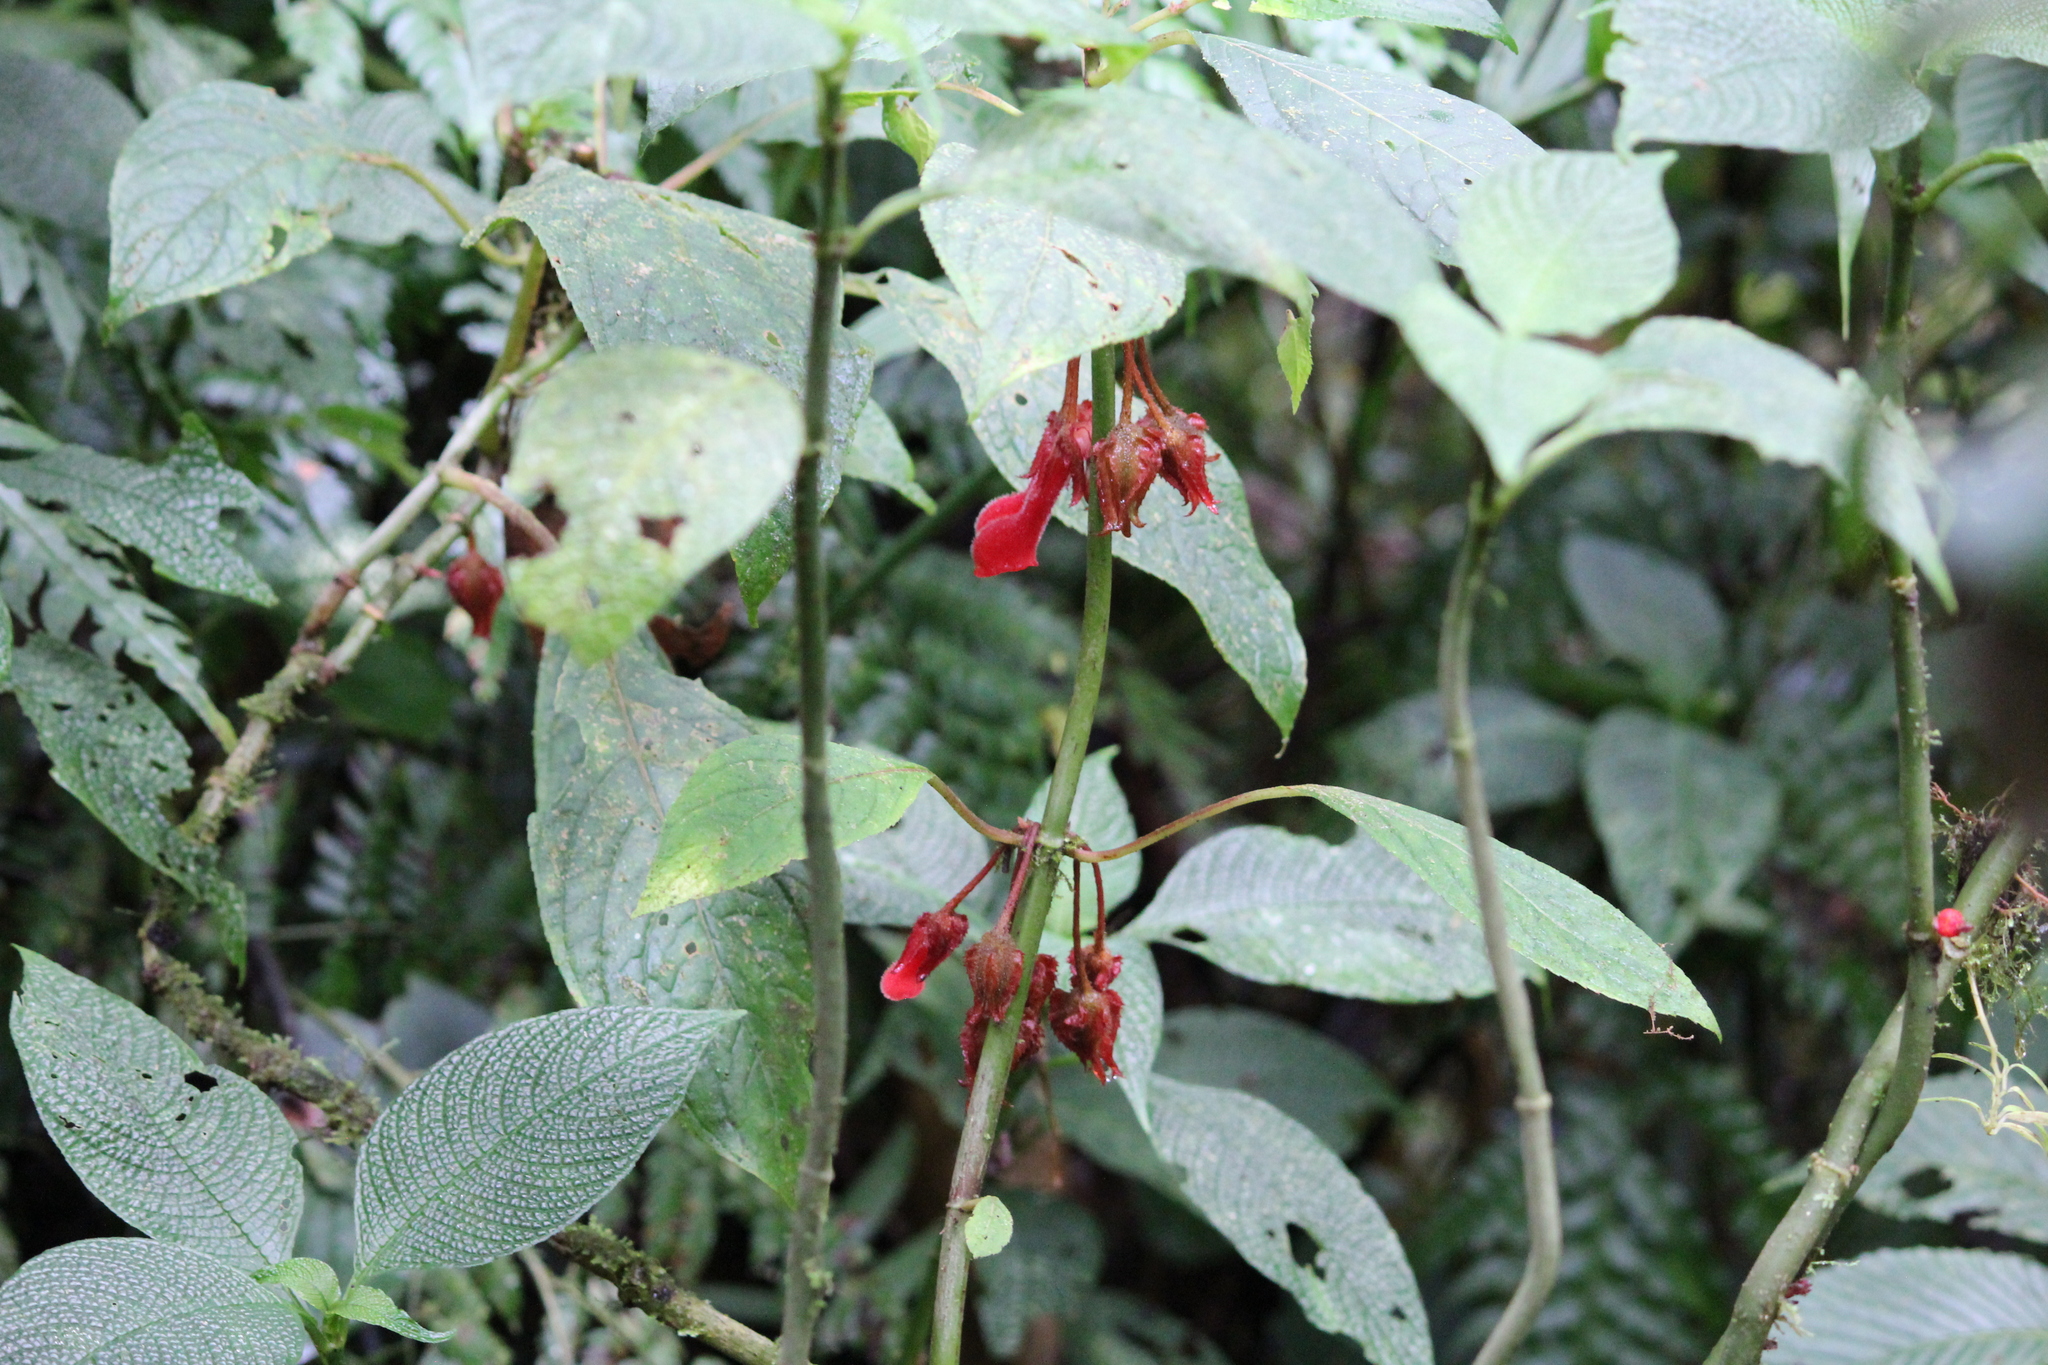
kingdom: Plantae
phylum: Tracheophyta
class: Magnoliopsida
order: Lamiales
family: Gesneriaceae
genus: Glossoloma
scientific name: Glossoloma tetragonum
